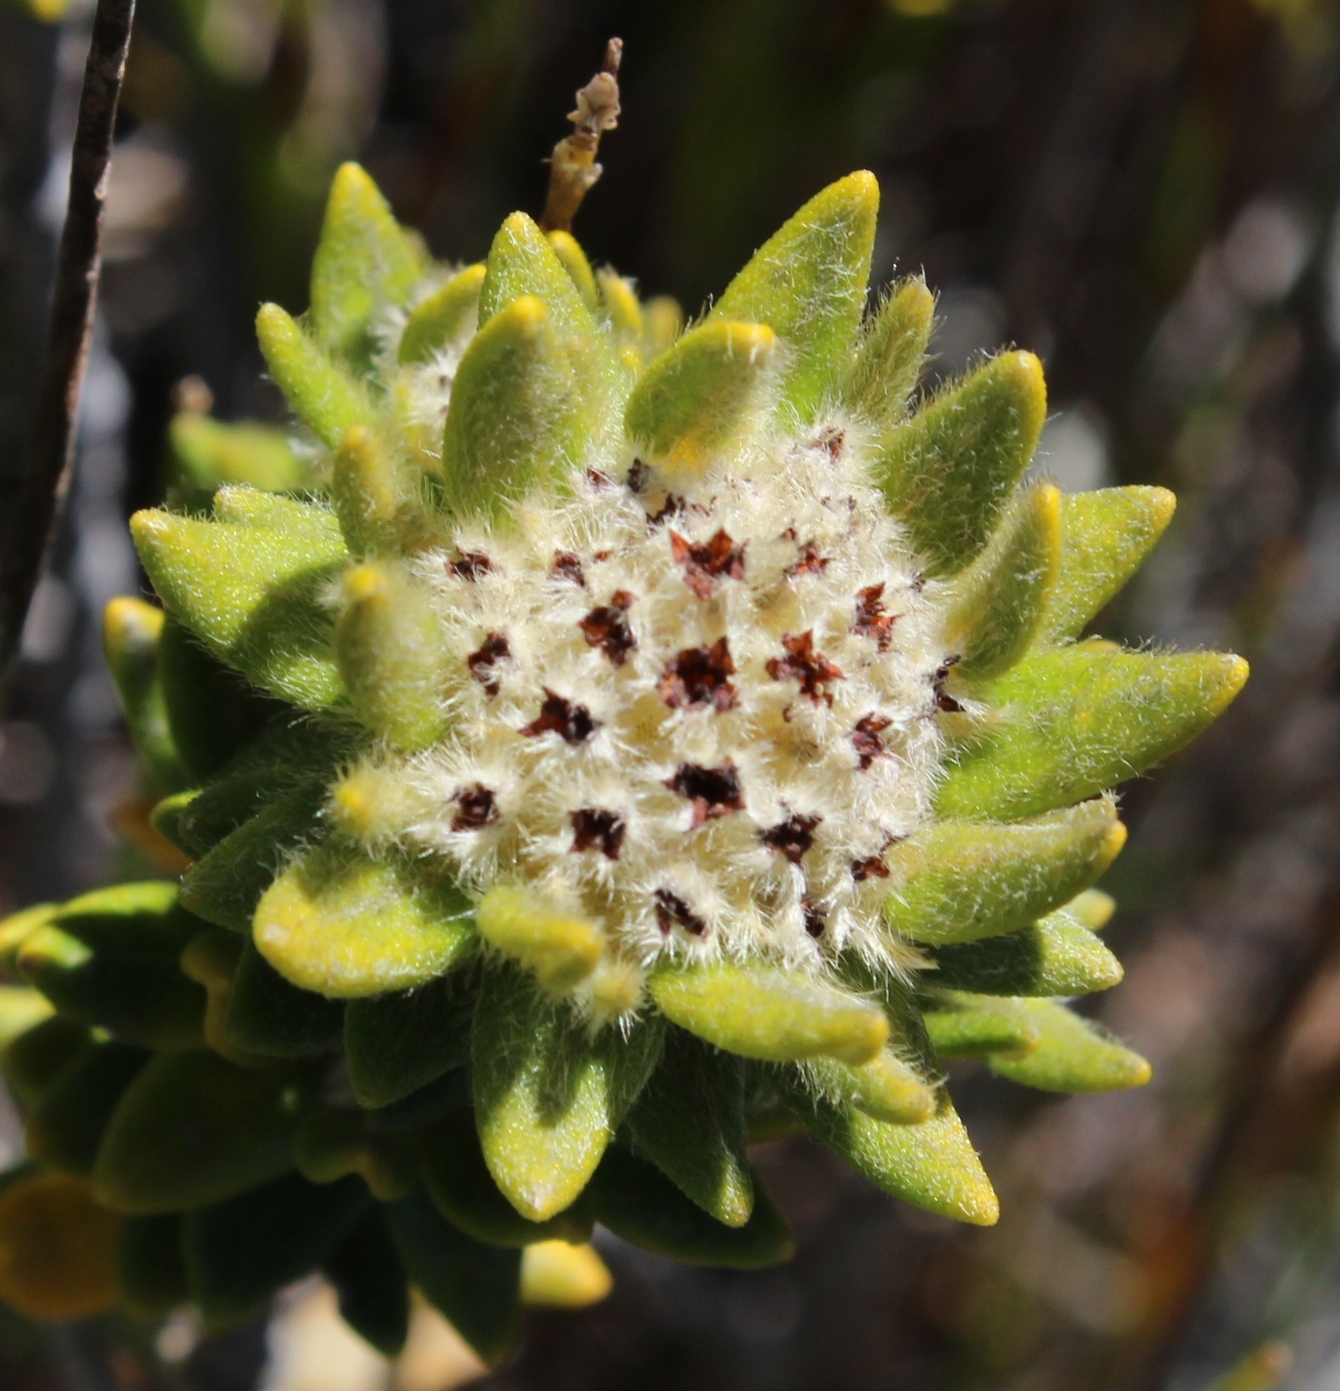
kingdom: Plantae
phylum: Tracheophyta
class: Magnoliopsida
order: Rosales
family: Rhamnaceae
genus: Phylica
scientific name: Phylica dioica
